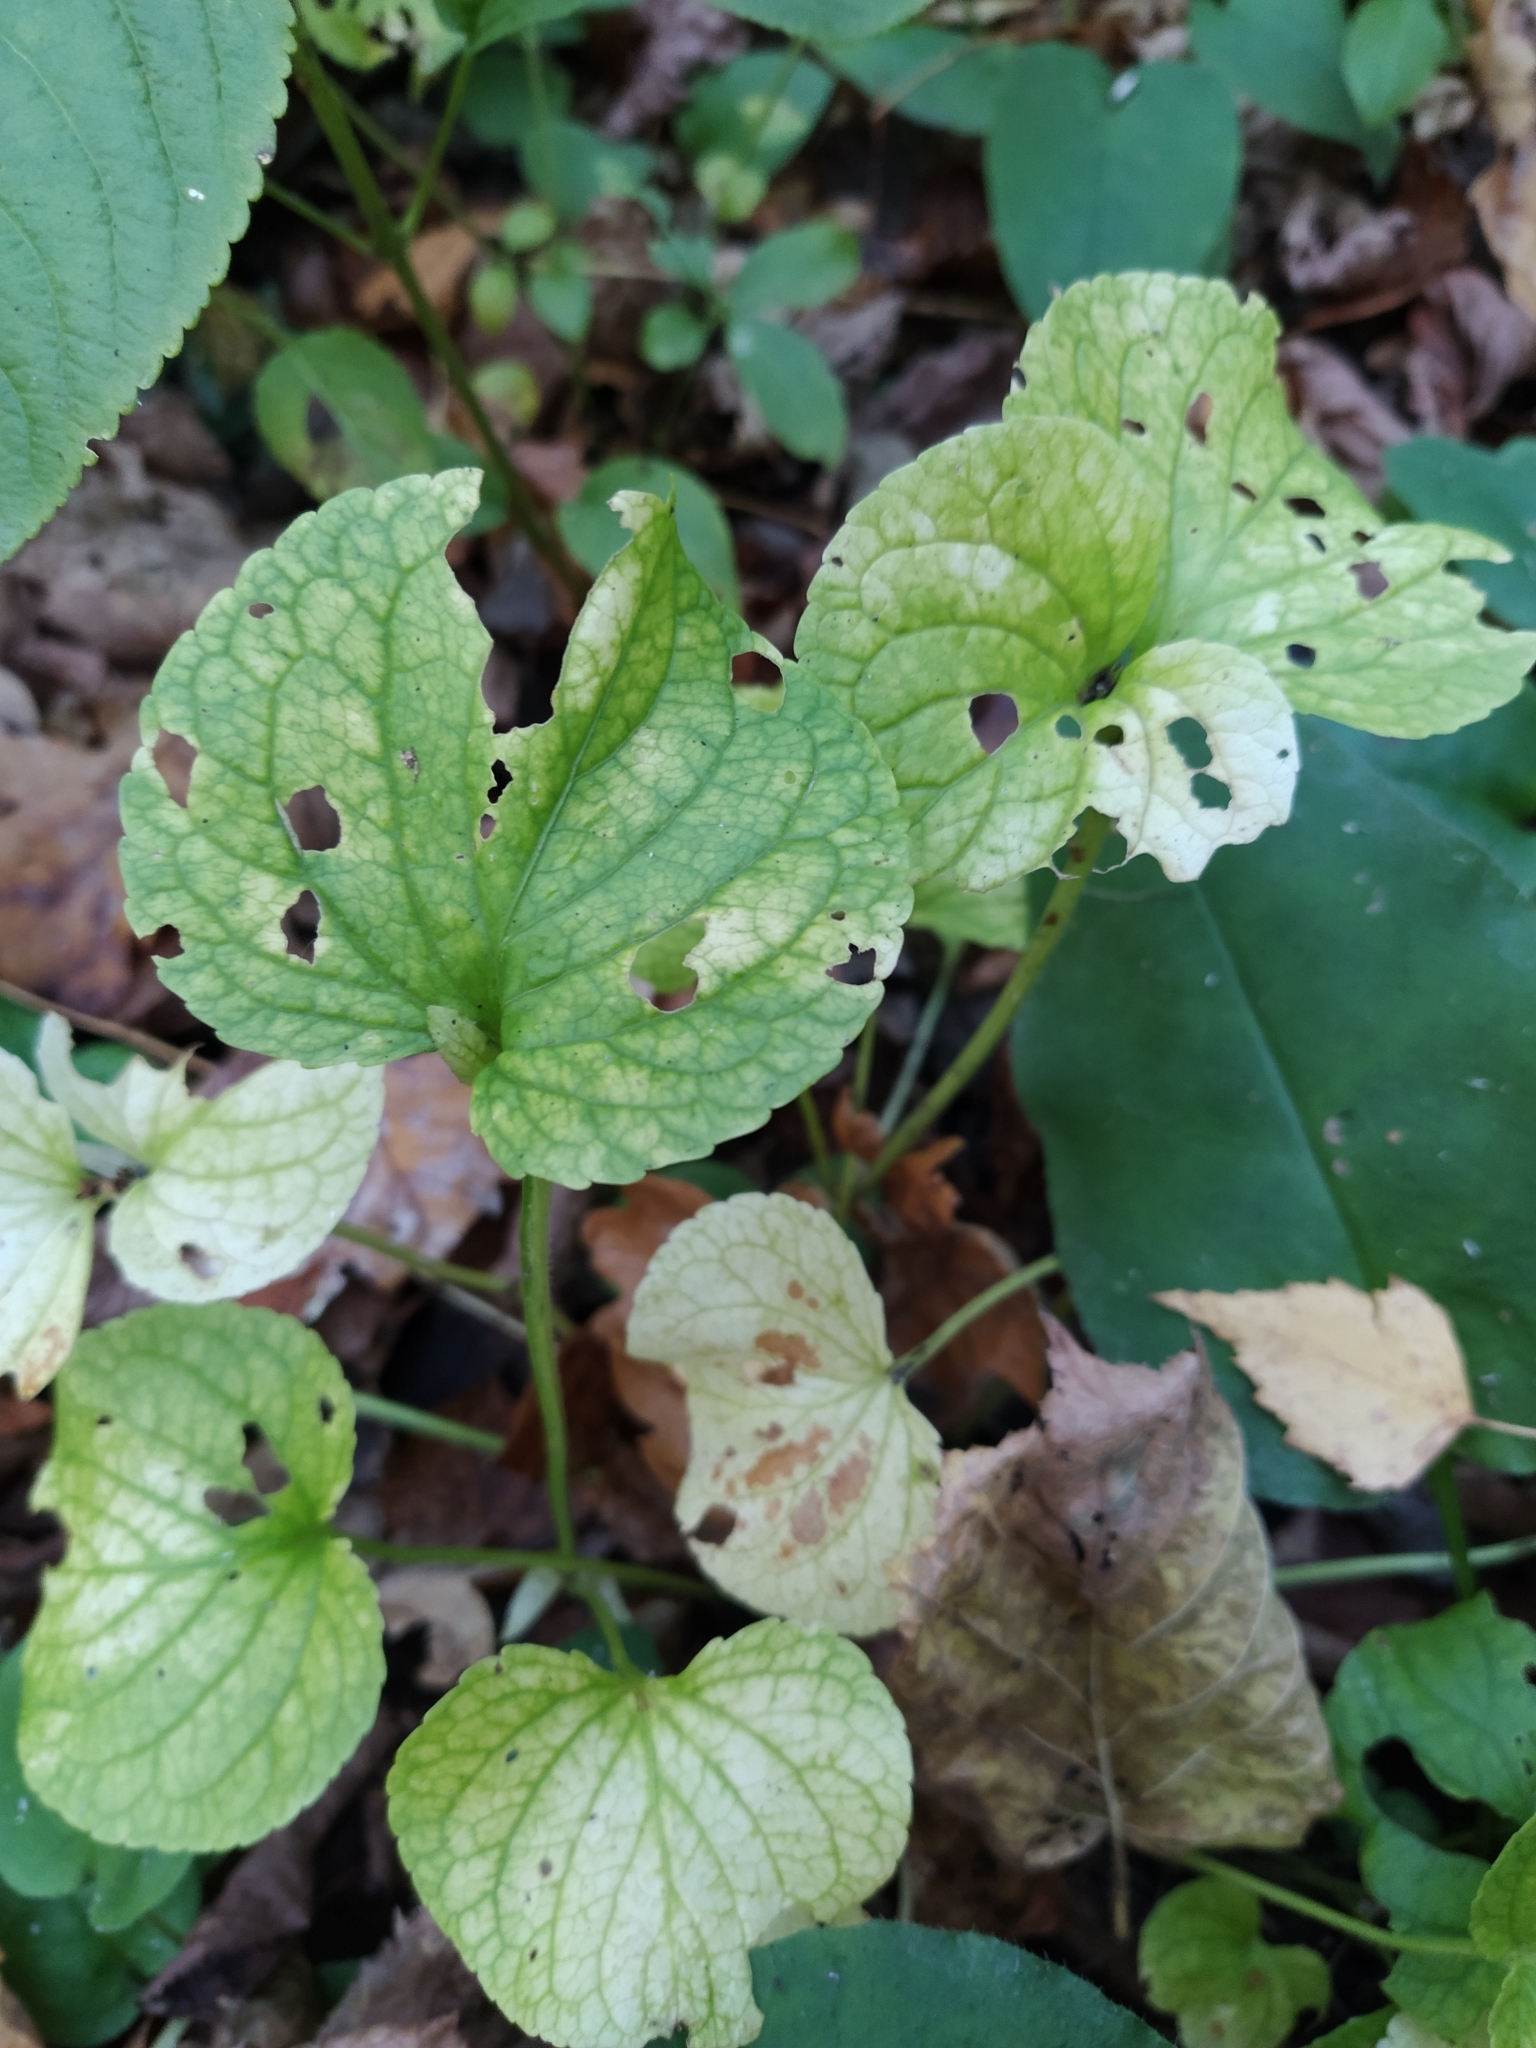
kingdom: Plantae
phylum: Tracheophyta
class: Magnoliopsida
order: Malpighiales
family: Violaceae
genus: Viola
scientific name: Viola mirabilis
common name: Wonder violet
